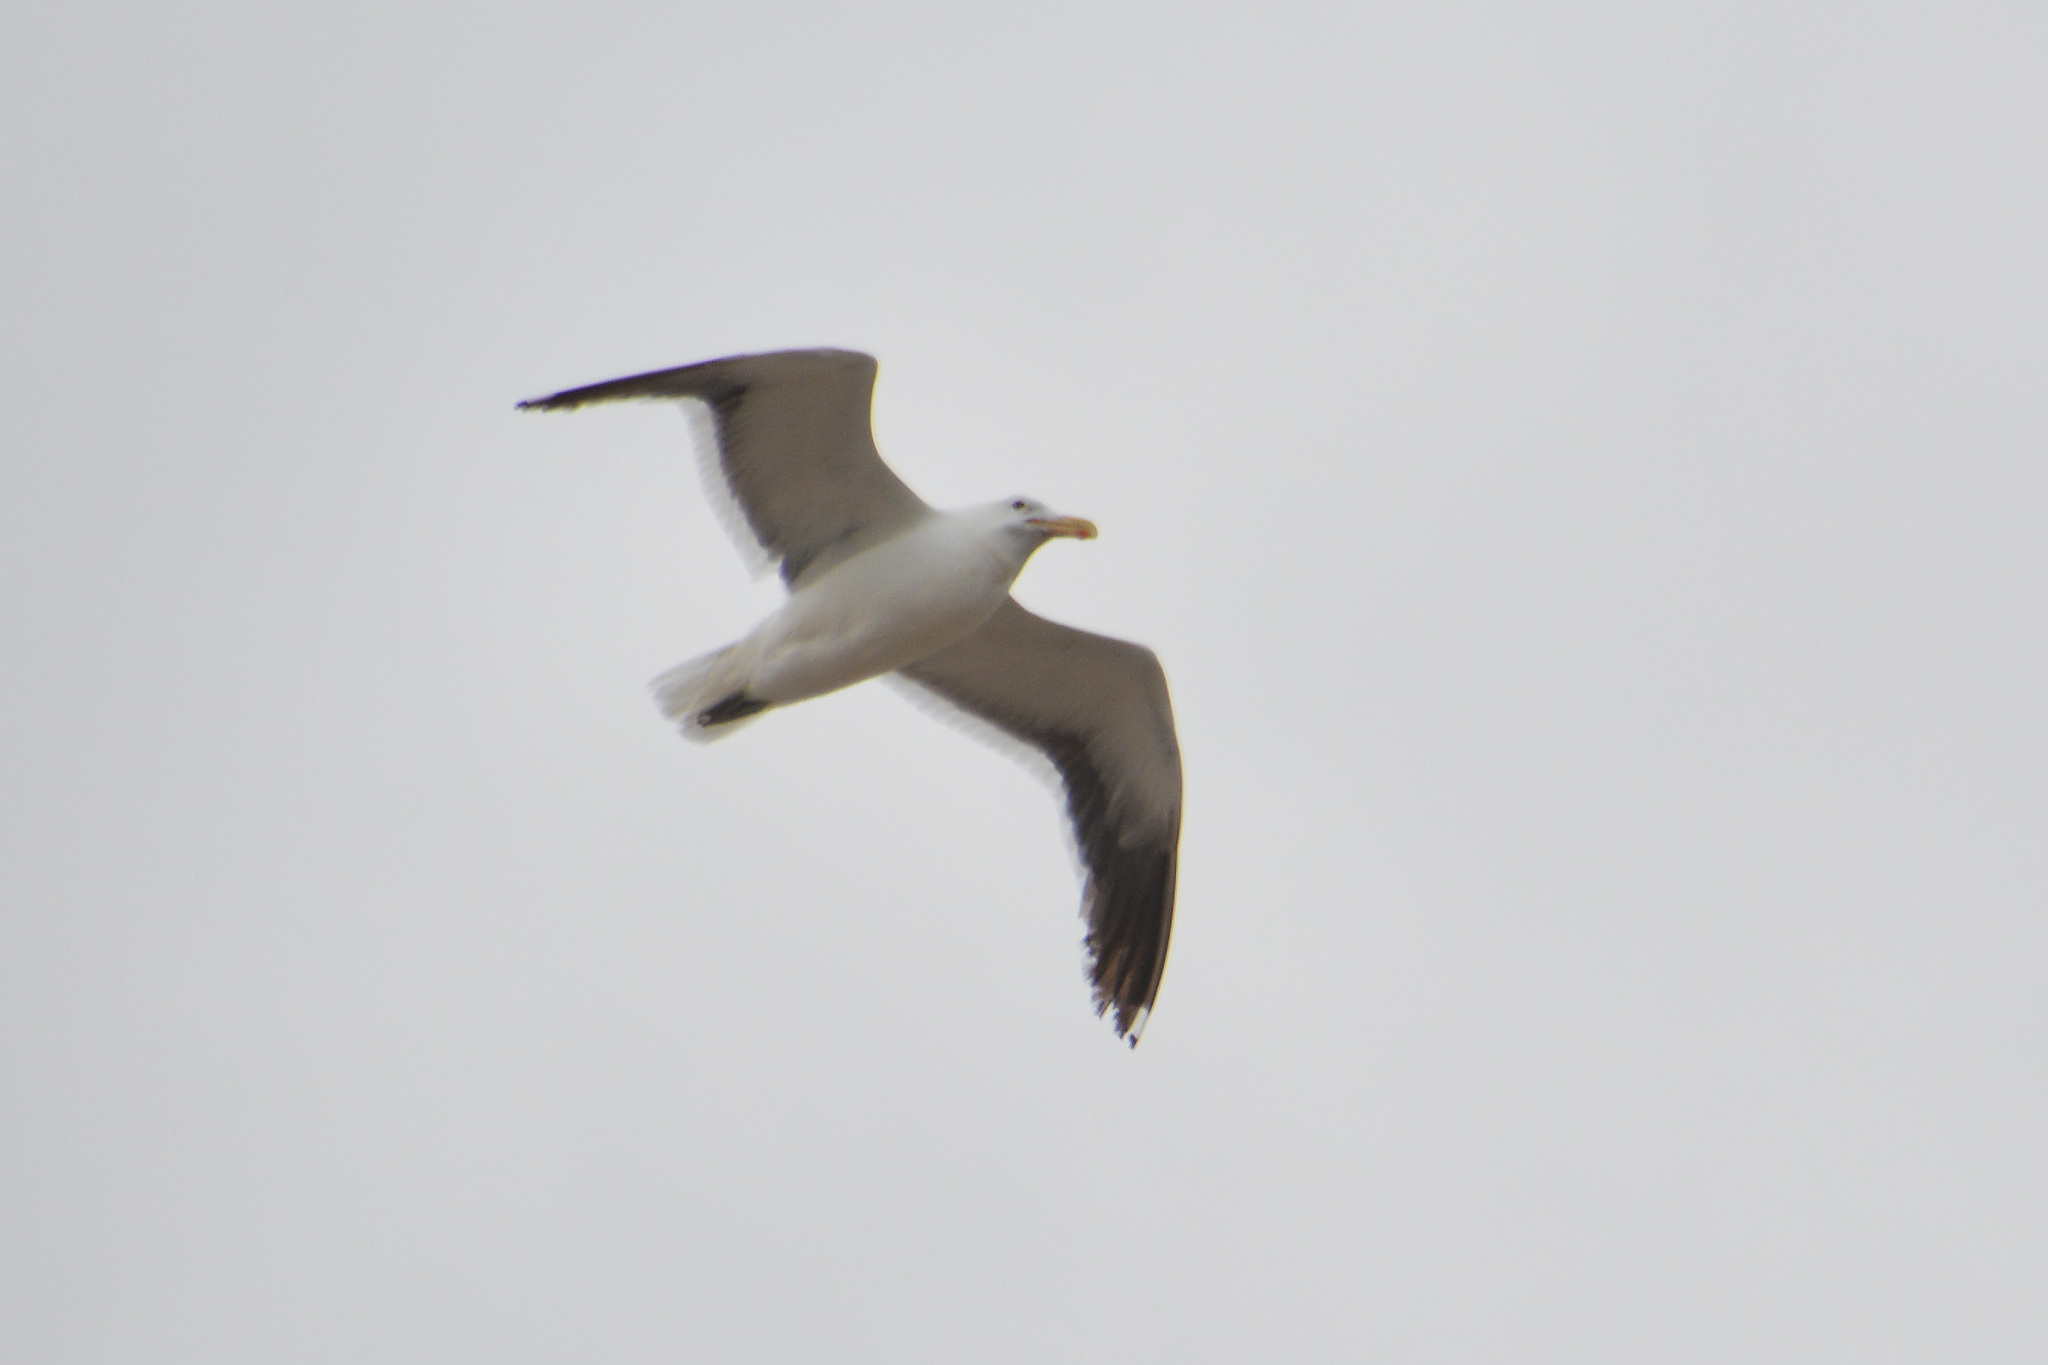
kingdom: Animalia
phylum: Chordata
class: Aves
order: Charadriiformes
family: Laridae
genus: Larus
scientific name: Larus dominicanus
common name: Kelp gull
